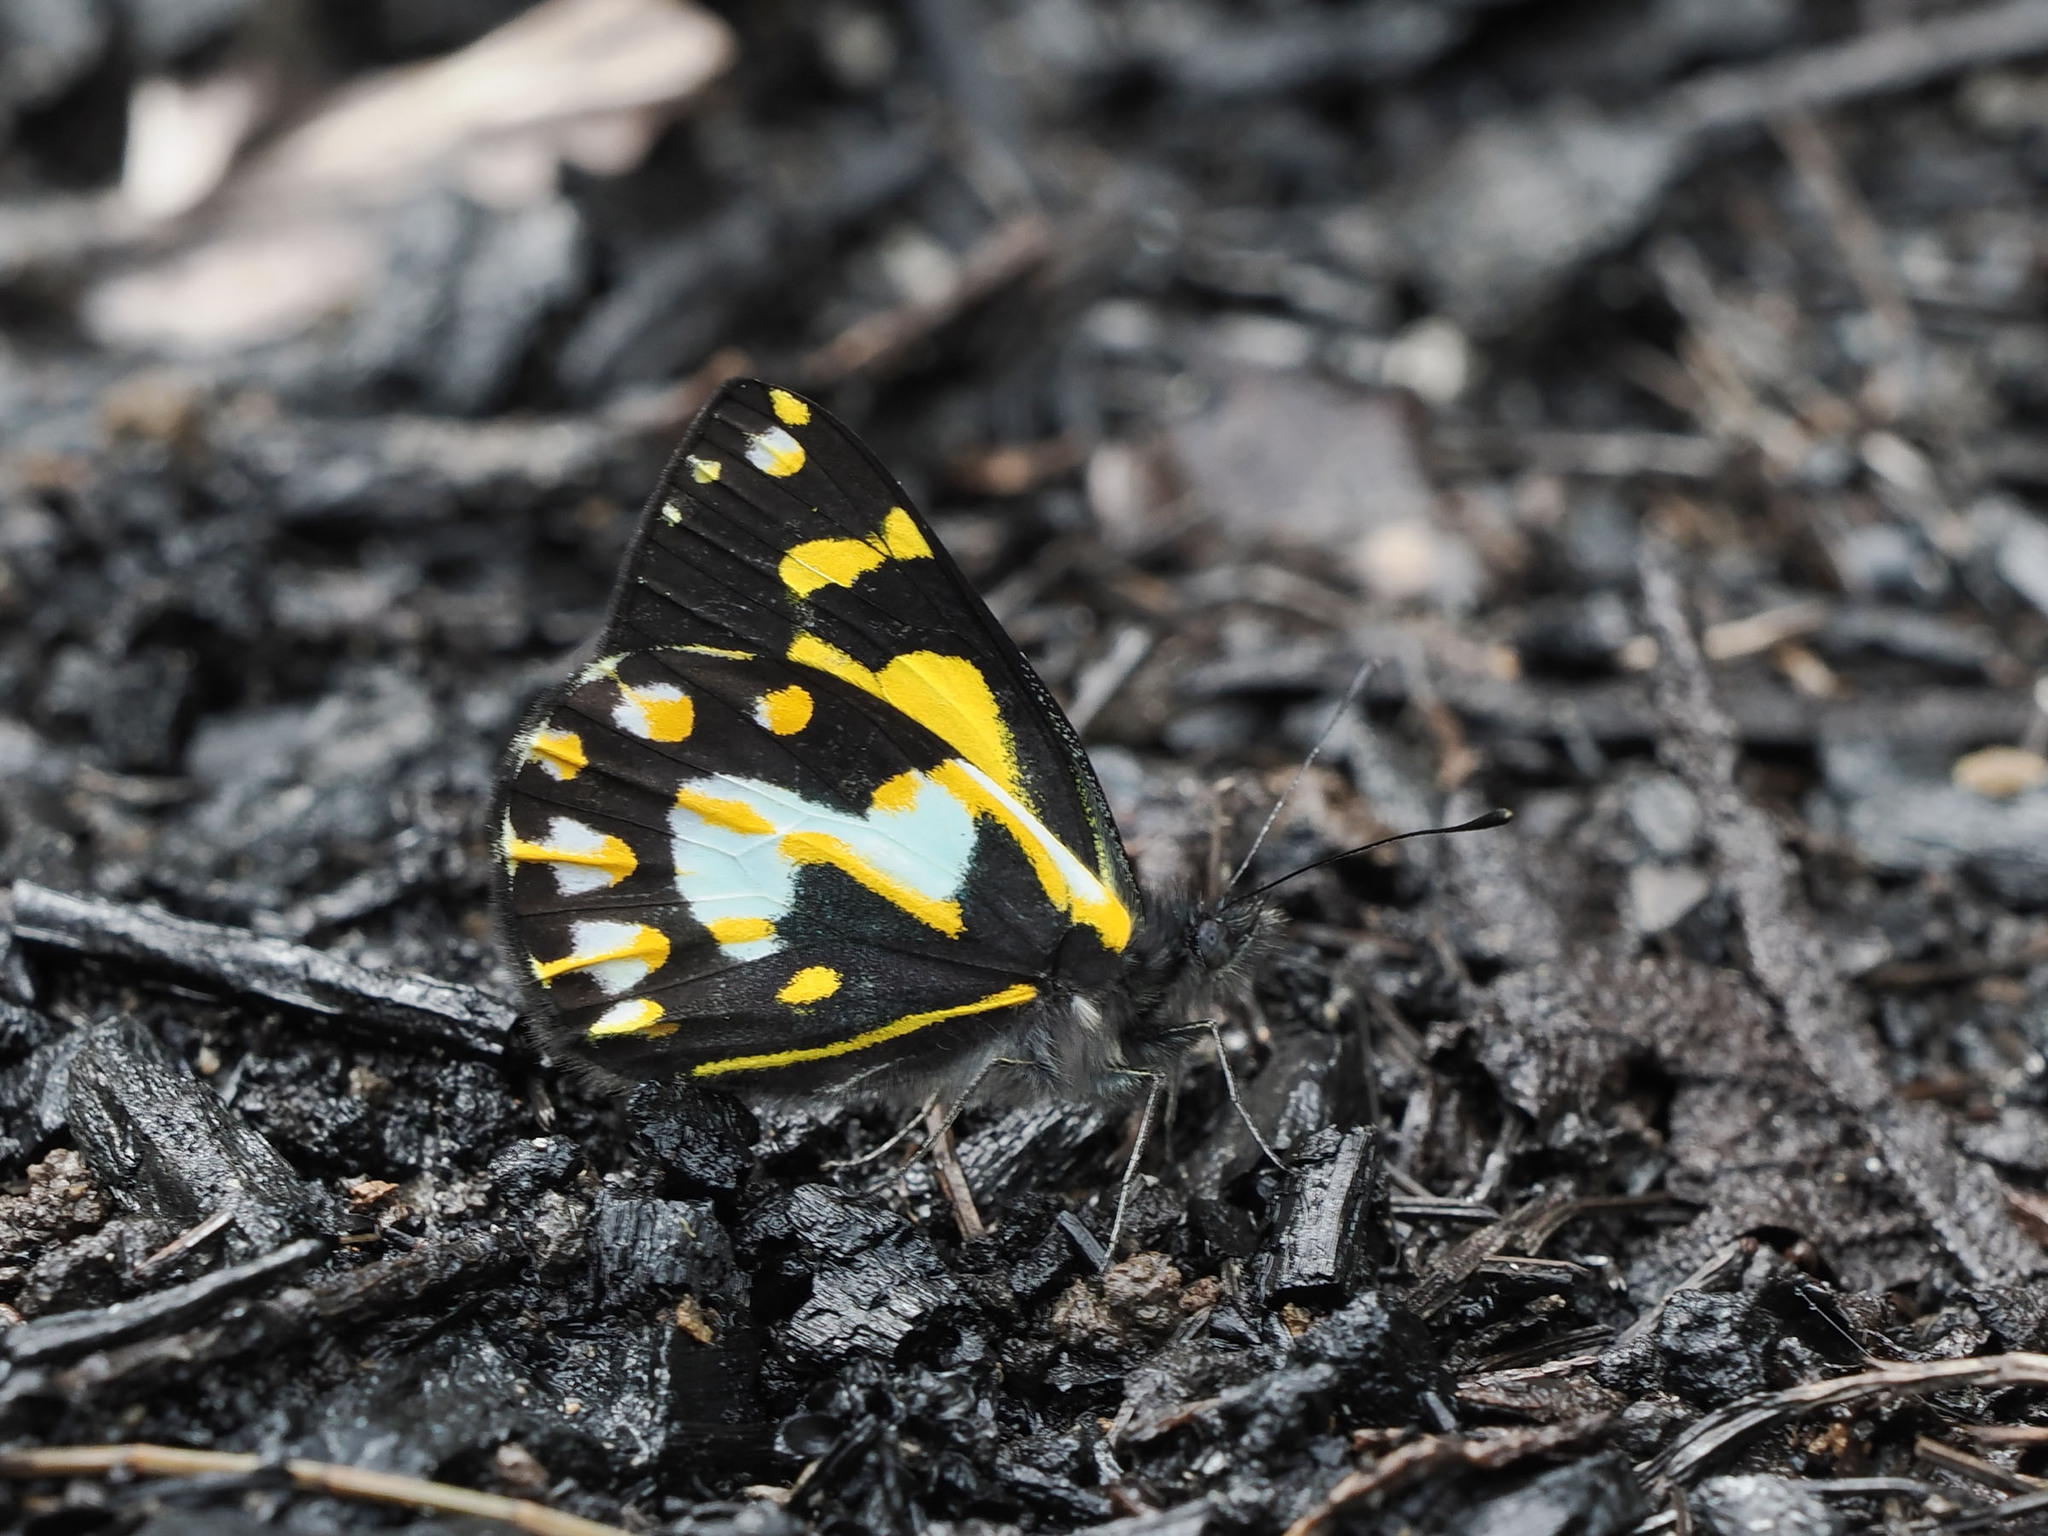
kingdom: Animalia
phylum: Arthropoda
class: Insecta
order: Lepidoptera
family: Pieridae
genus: Delias
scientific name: Delias toxopei
